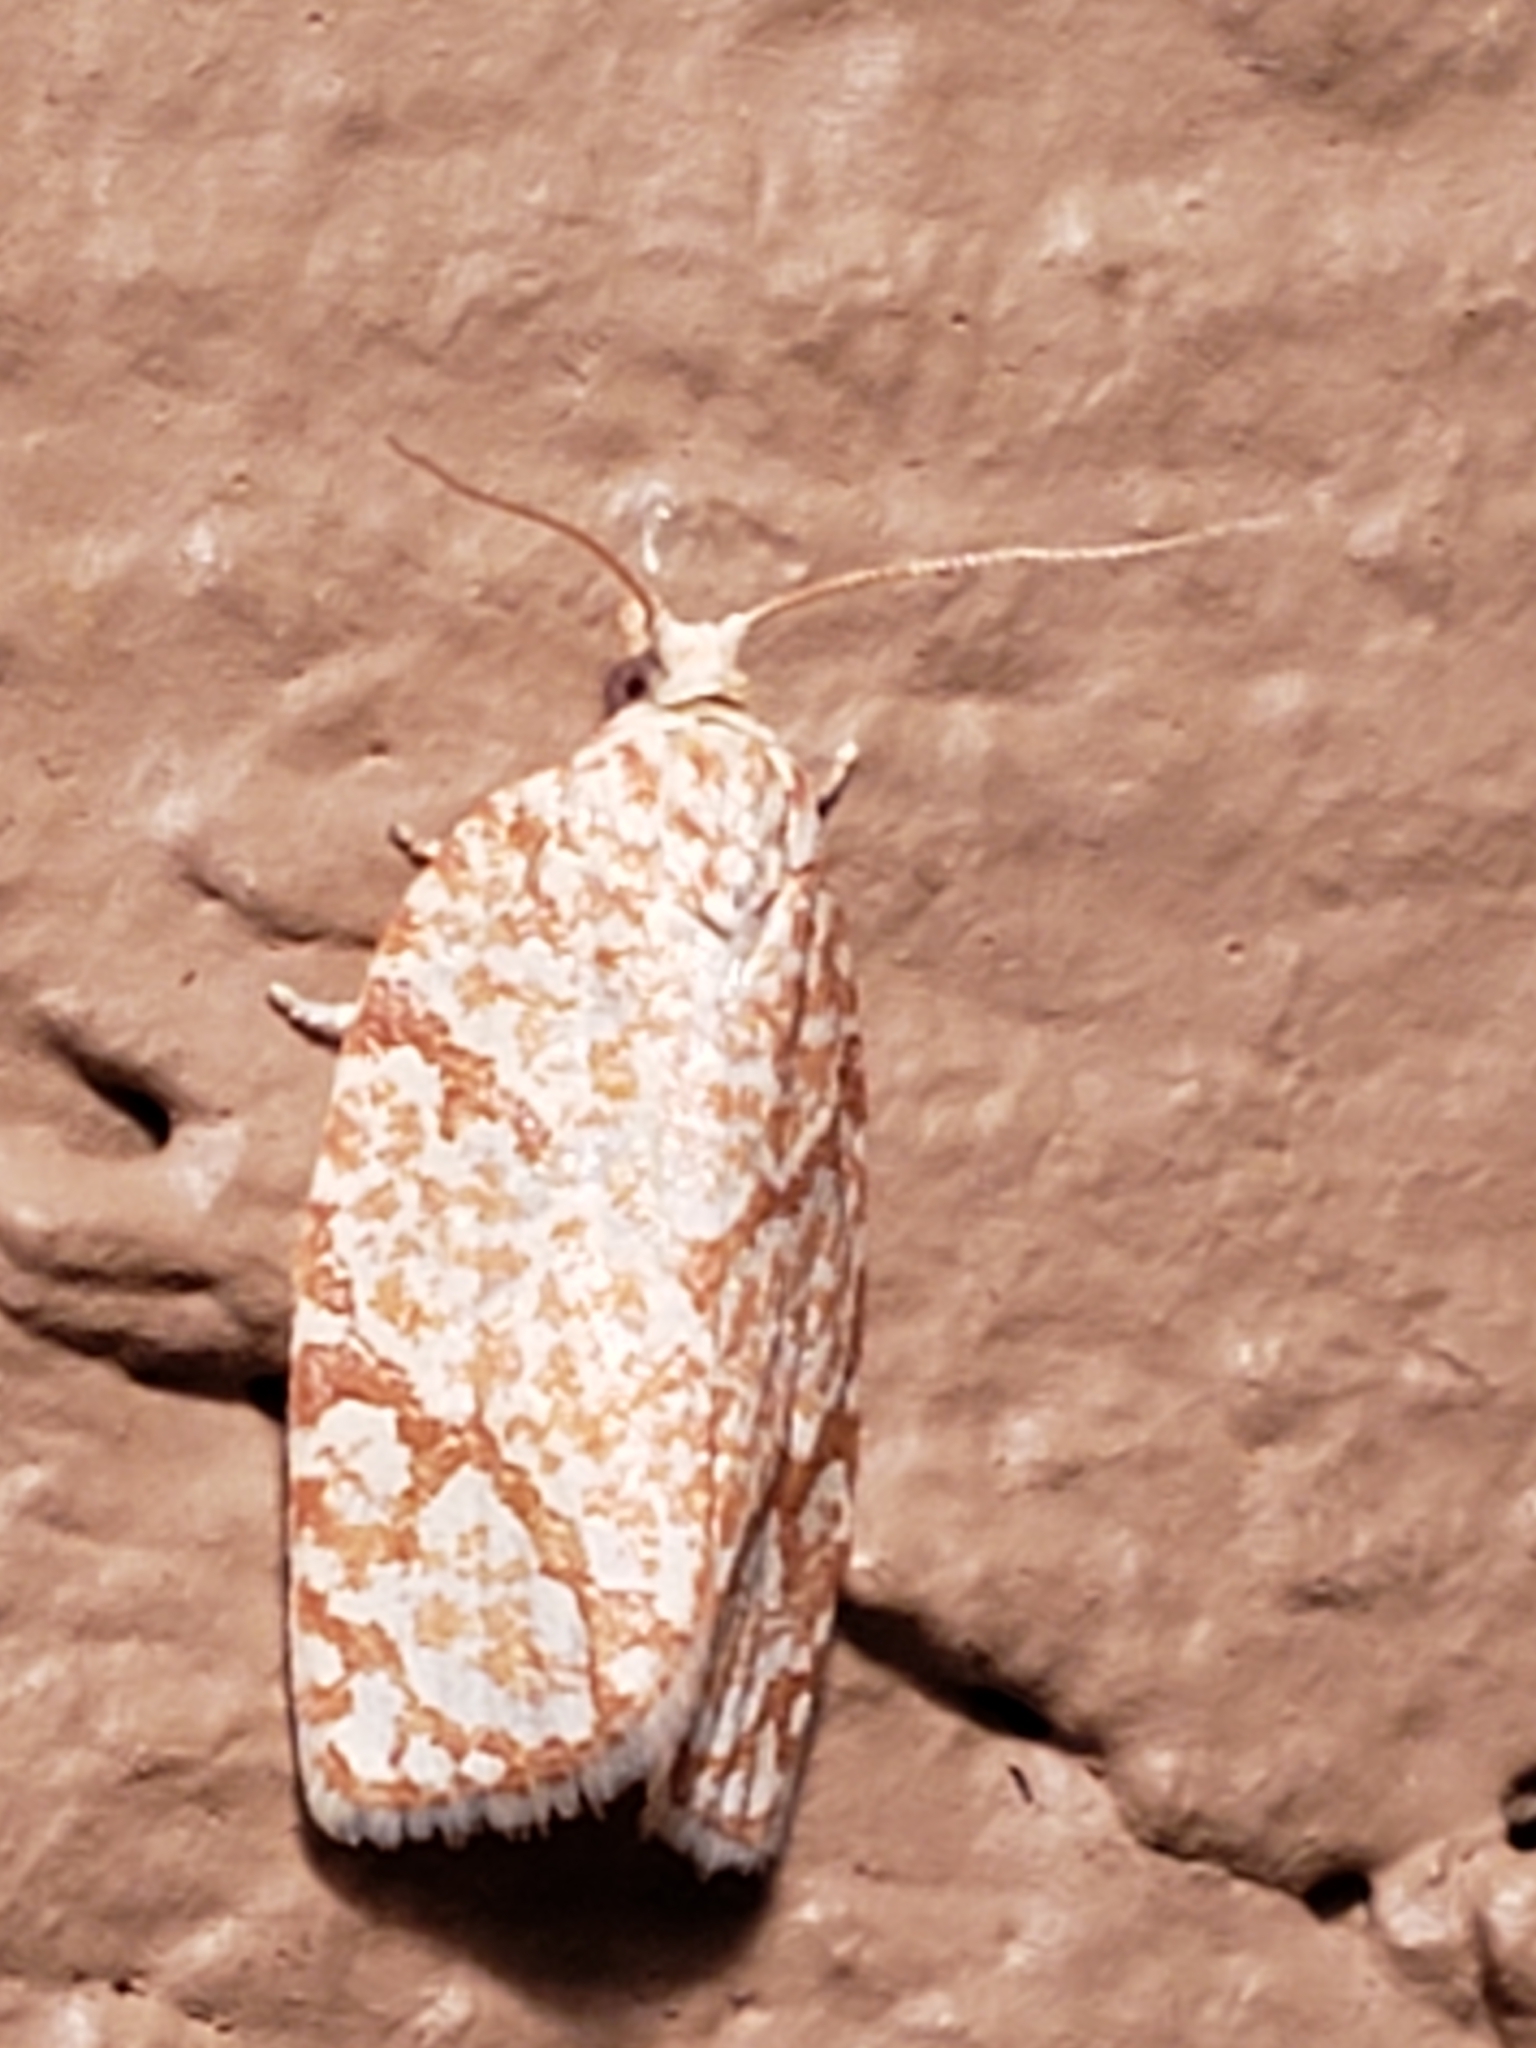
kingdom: Animalia
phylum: Arthropoda
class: Insecta
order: Lepidoptera
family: Tortricidae
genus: Argyrotaenia
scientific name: Argyrotaenia quercifoliana
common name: Yellow-winged oak leafroller moth
